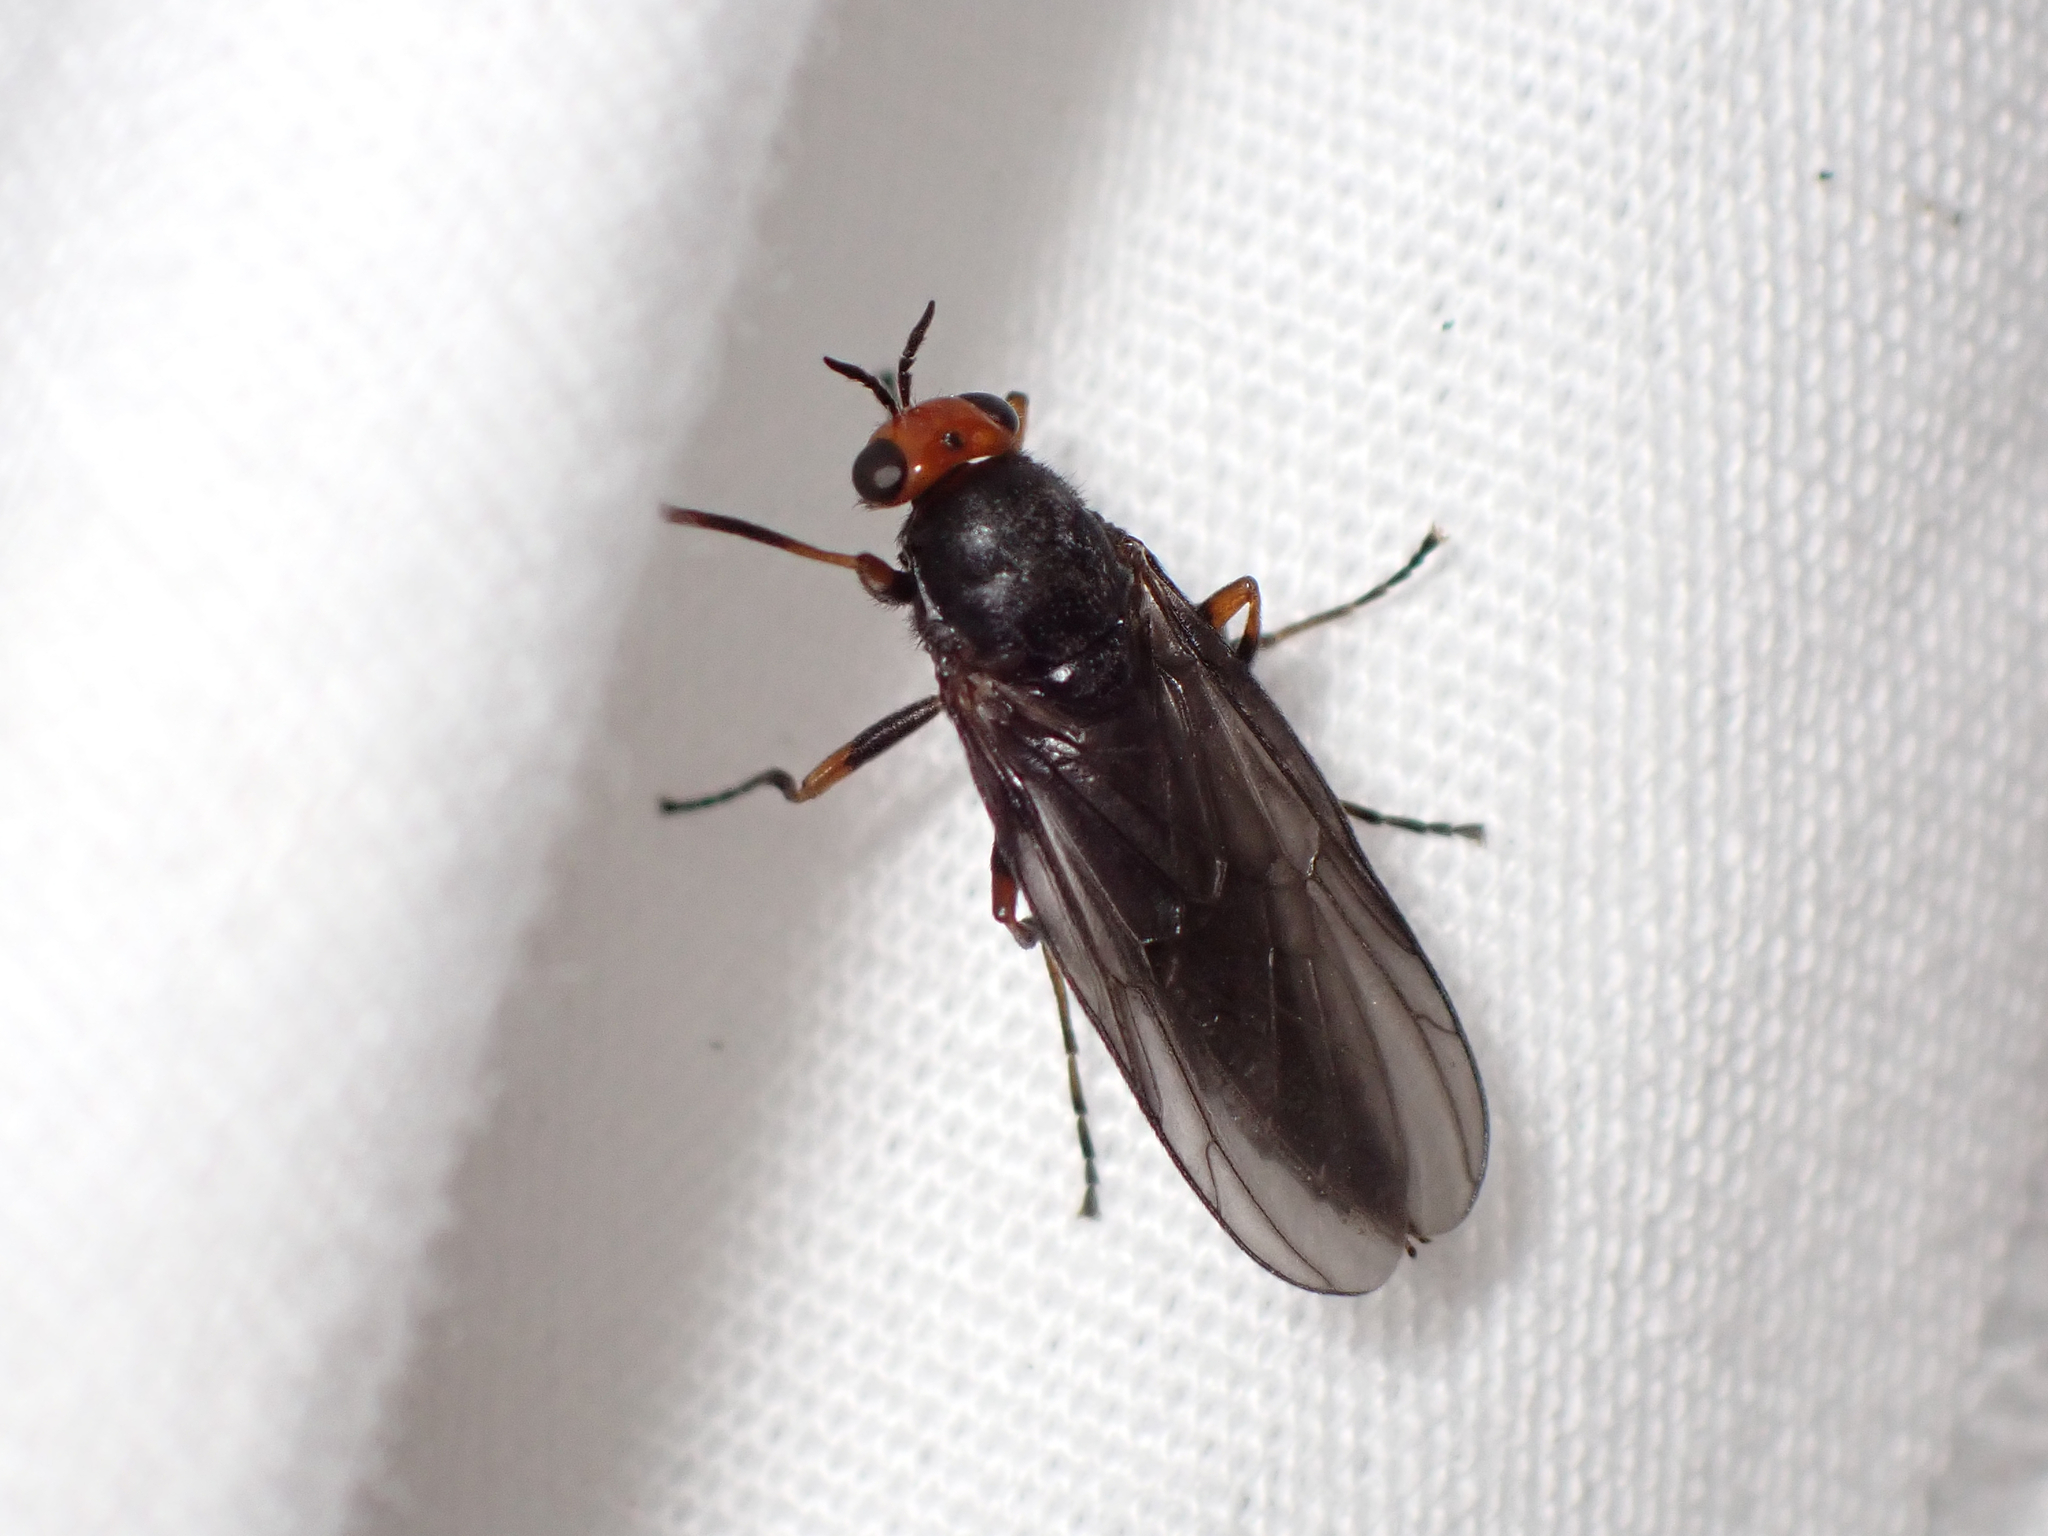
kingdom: Animalia
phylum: Arthropoda
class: Insecta
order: Diptera
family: Stratiomyidae
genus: Inopus
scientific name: Inopus rubriceps
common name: Soldier fly
